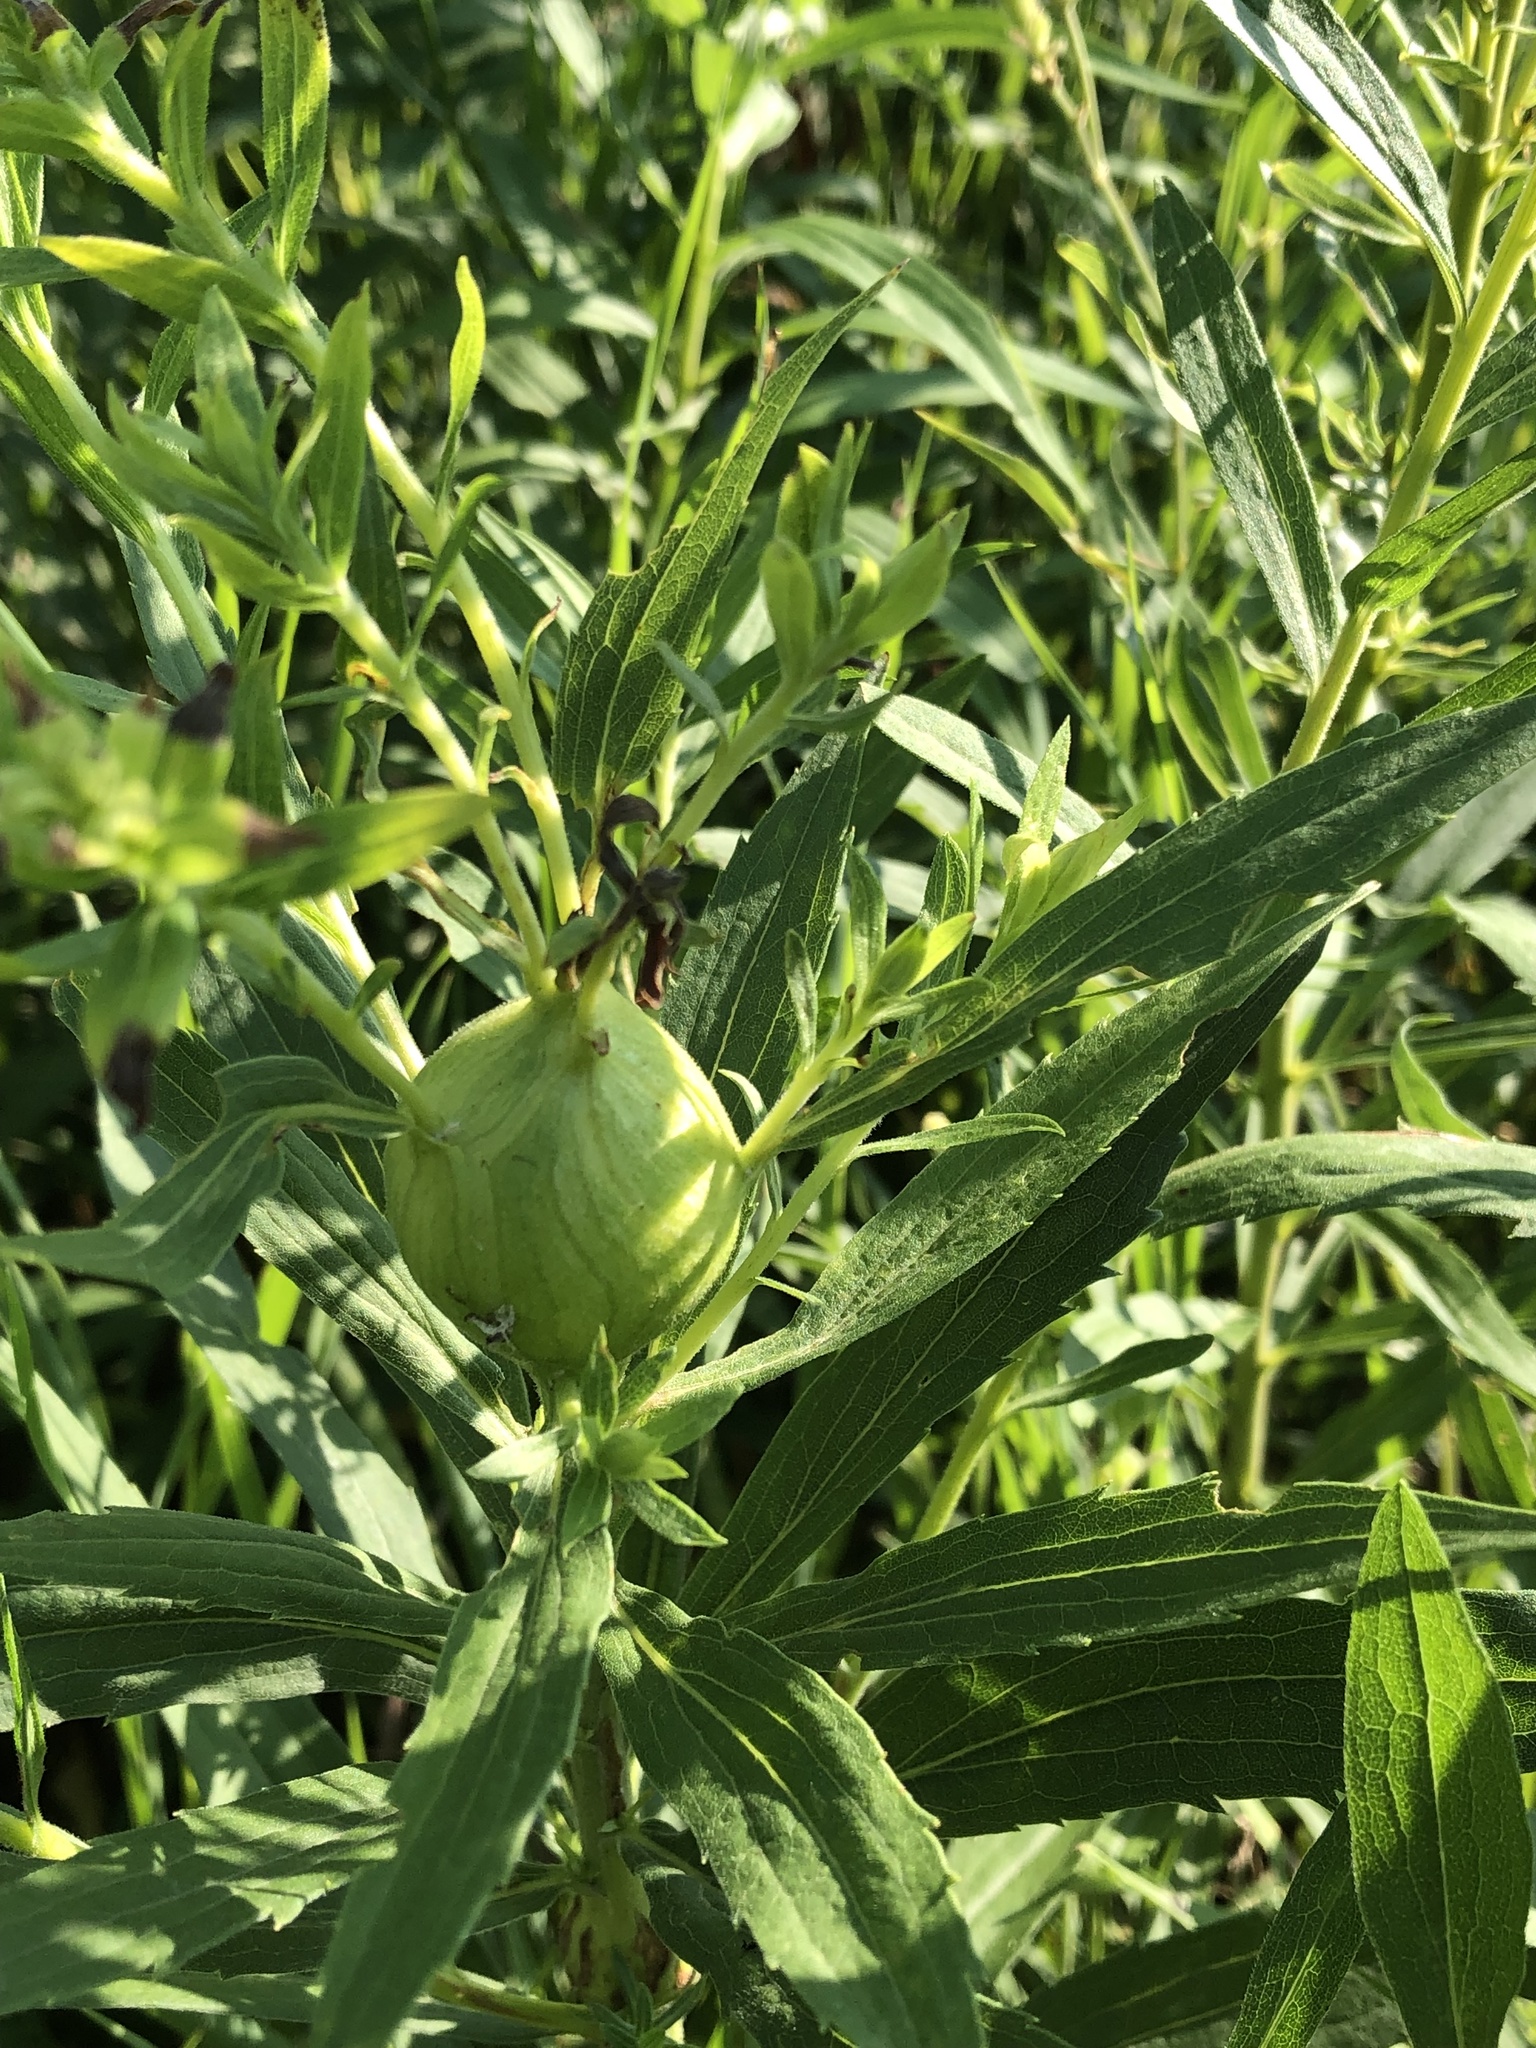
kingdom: Animalia
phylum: Arthropoda
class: Insecta
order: Diptera
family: Tephritidae
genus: Eurosta
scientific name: Eurosta solidaginis
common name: Goldenrod gall fly
